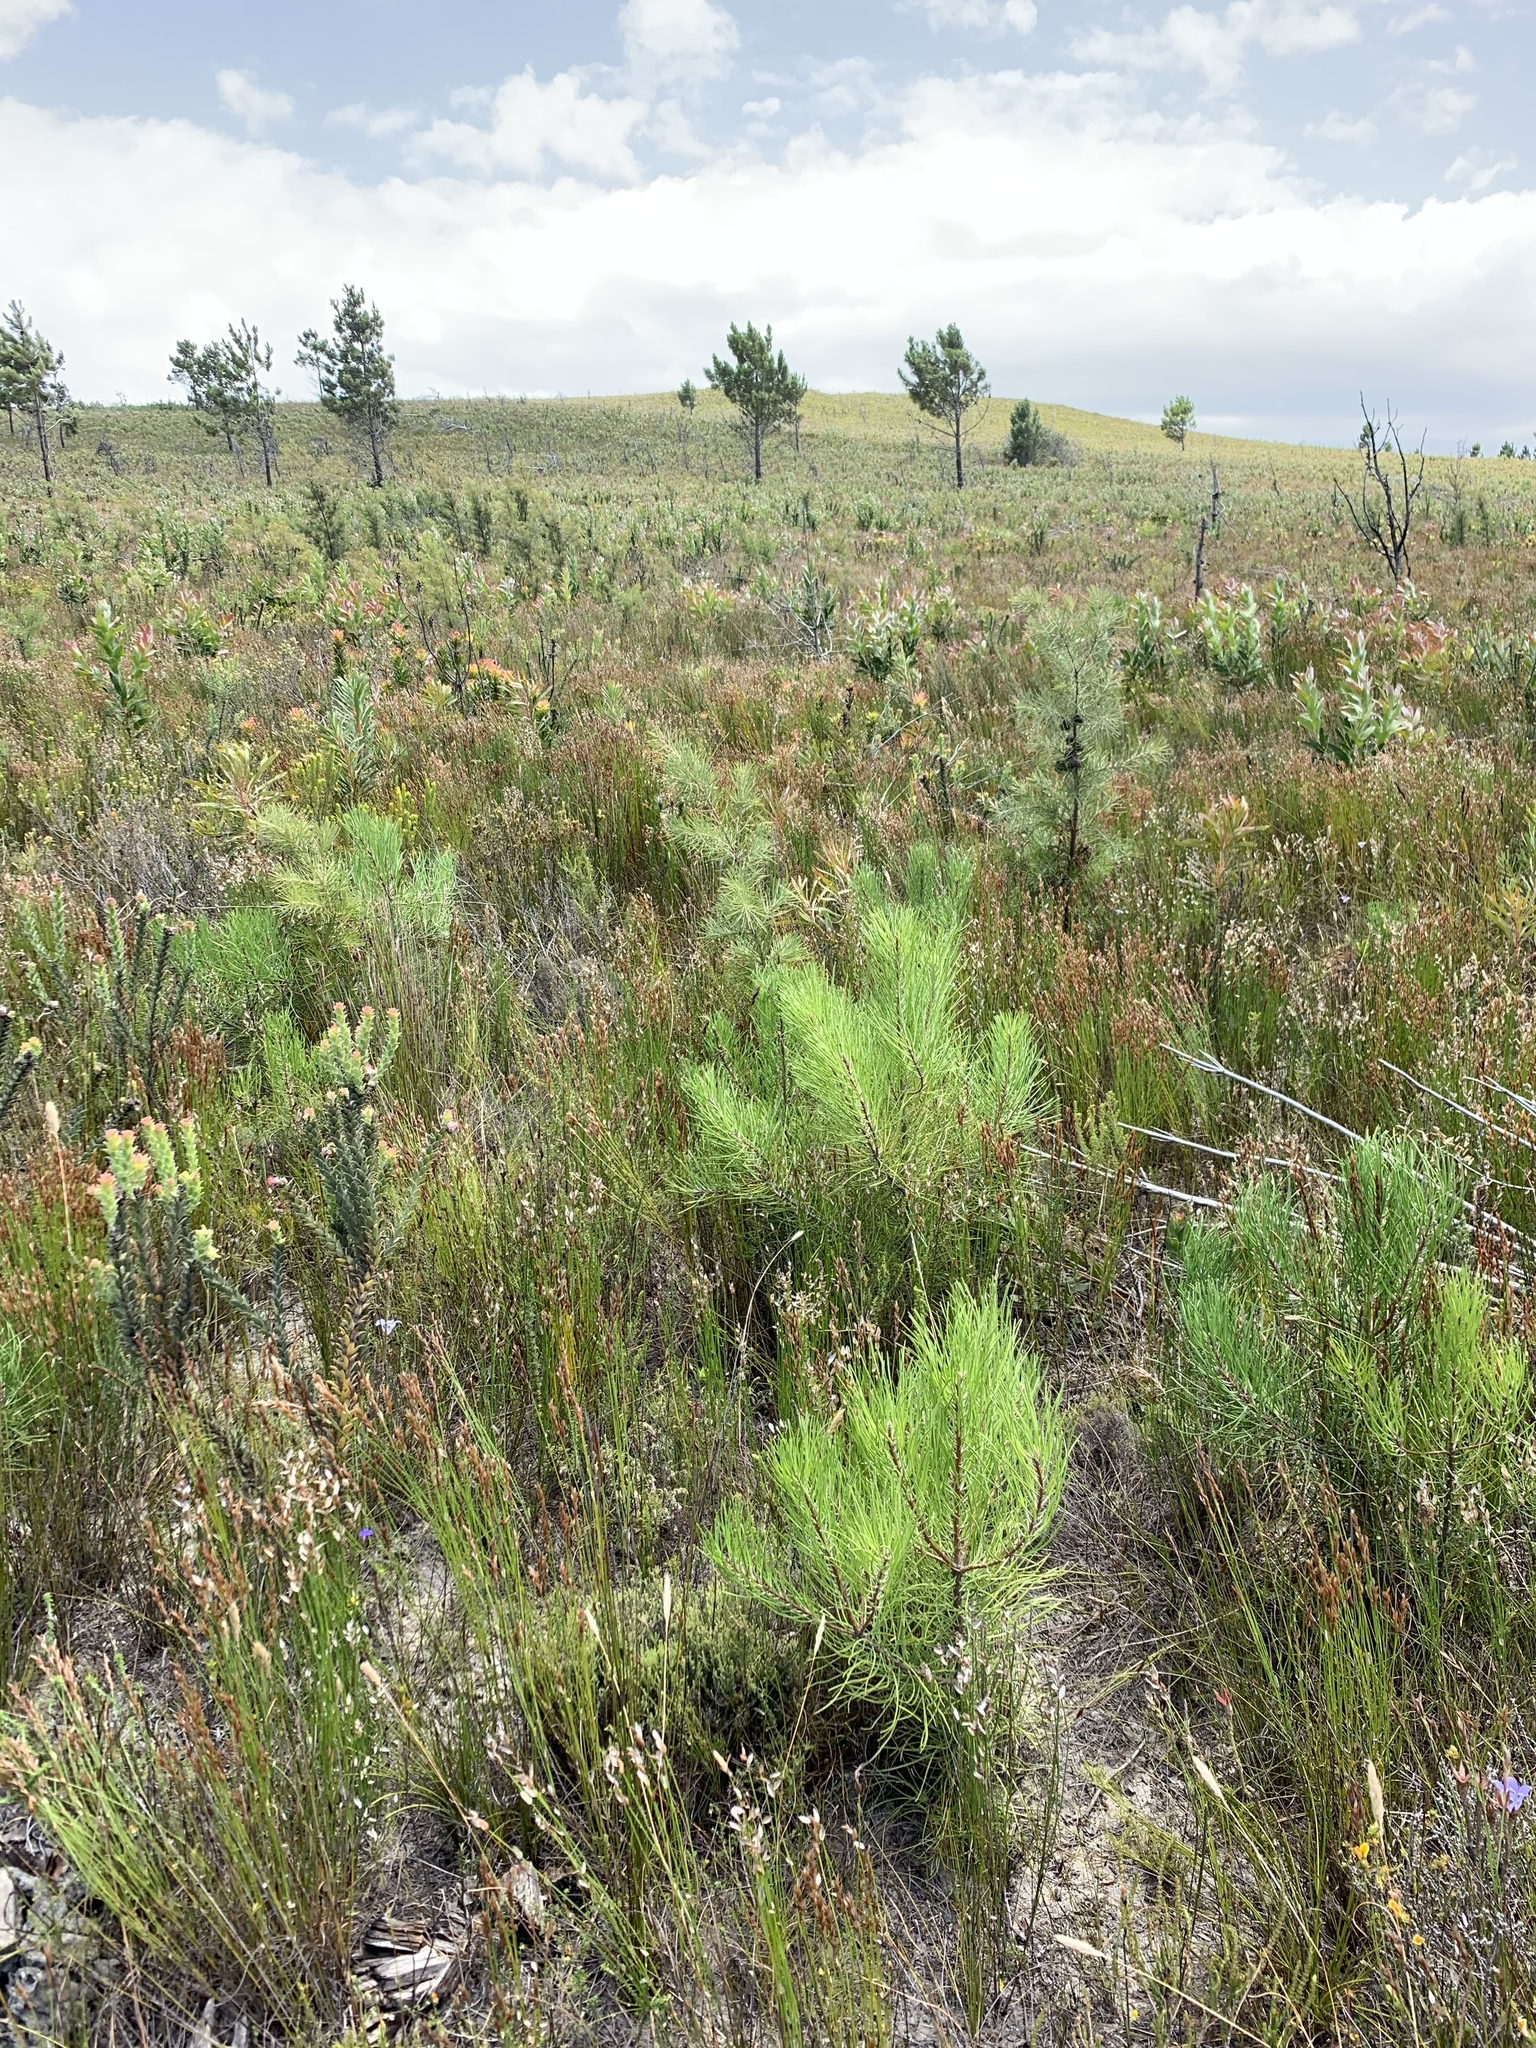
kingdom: Plantae
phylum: Tracheophyta
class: Pinopsida
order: Pinales
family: Pinaceae
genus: Pinus
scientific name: Pinus pinaster
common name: Maritime pine
